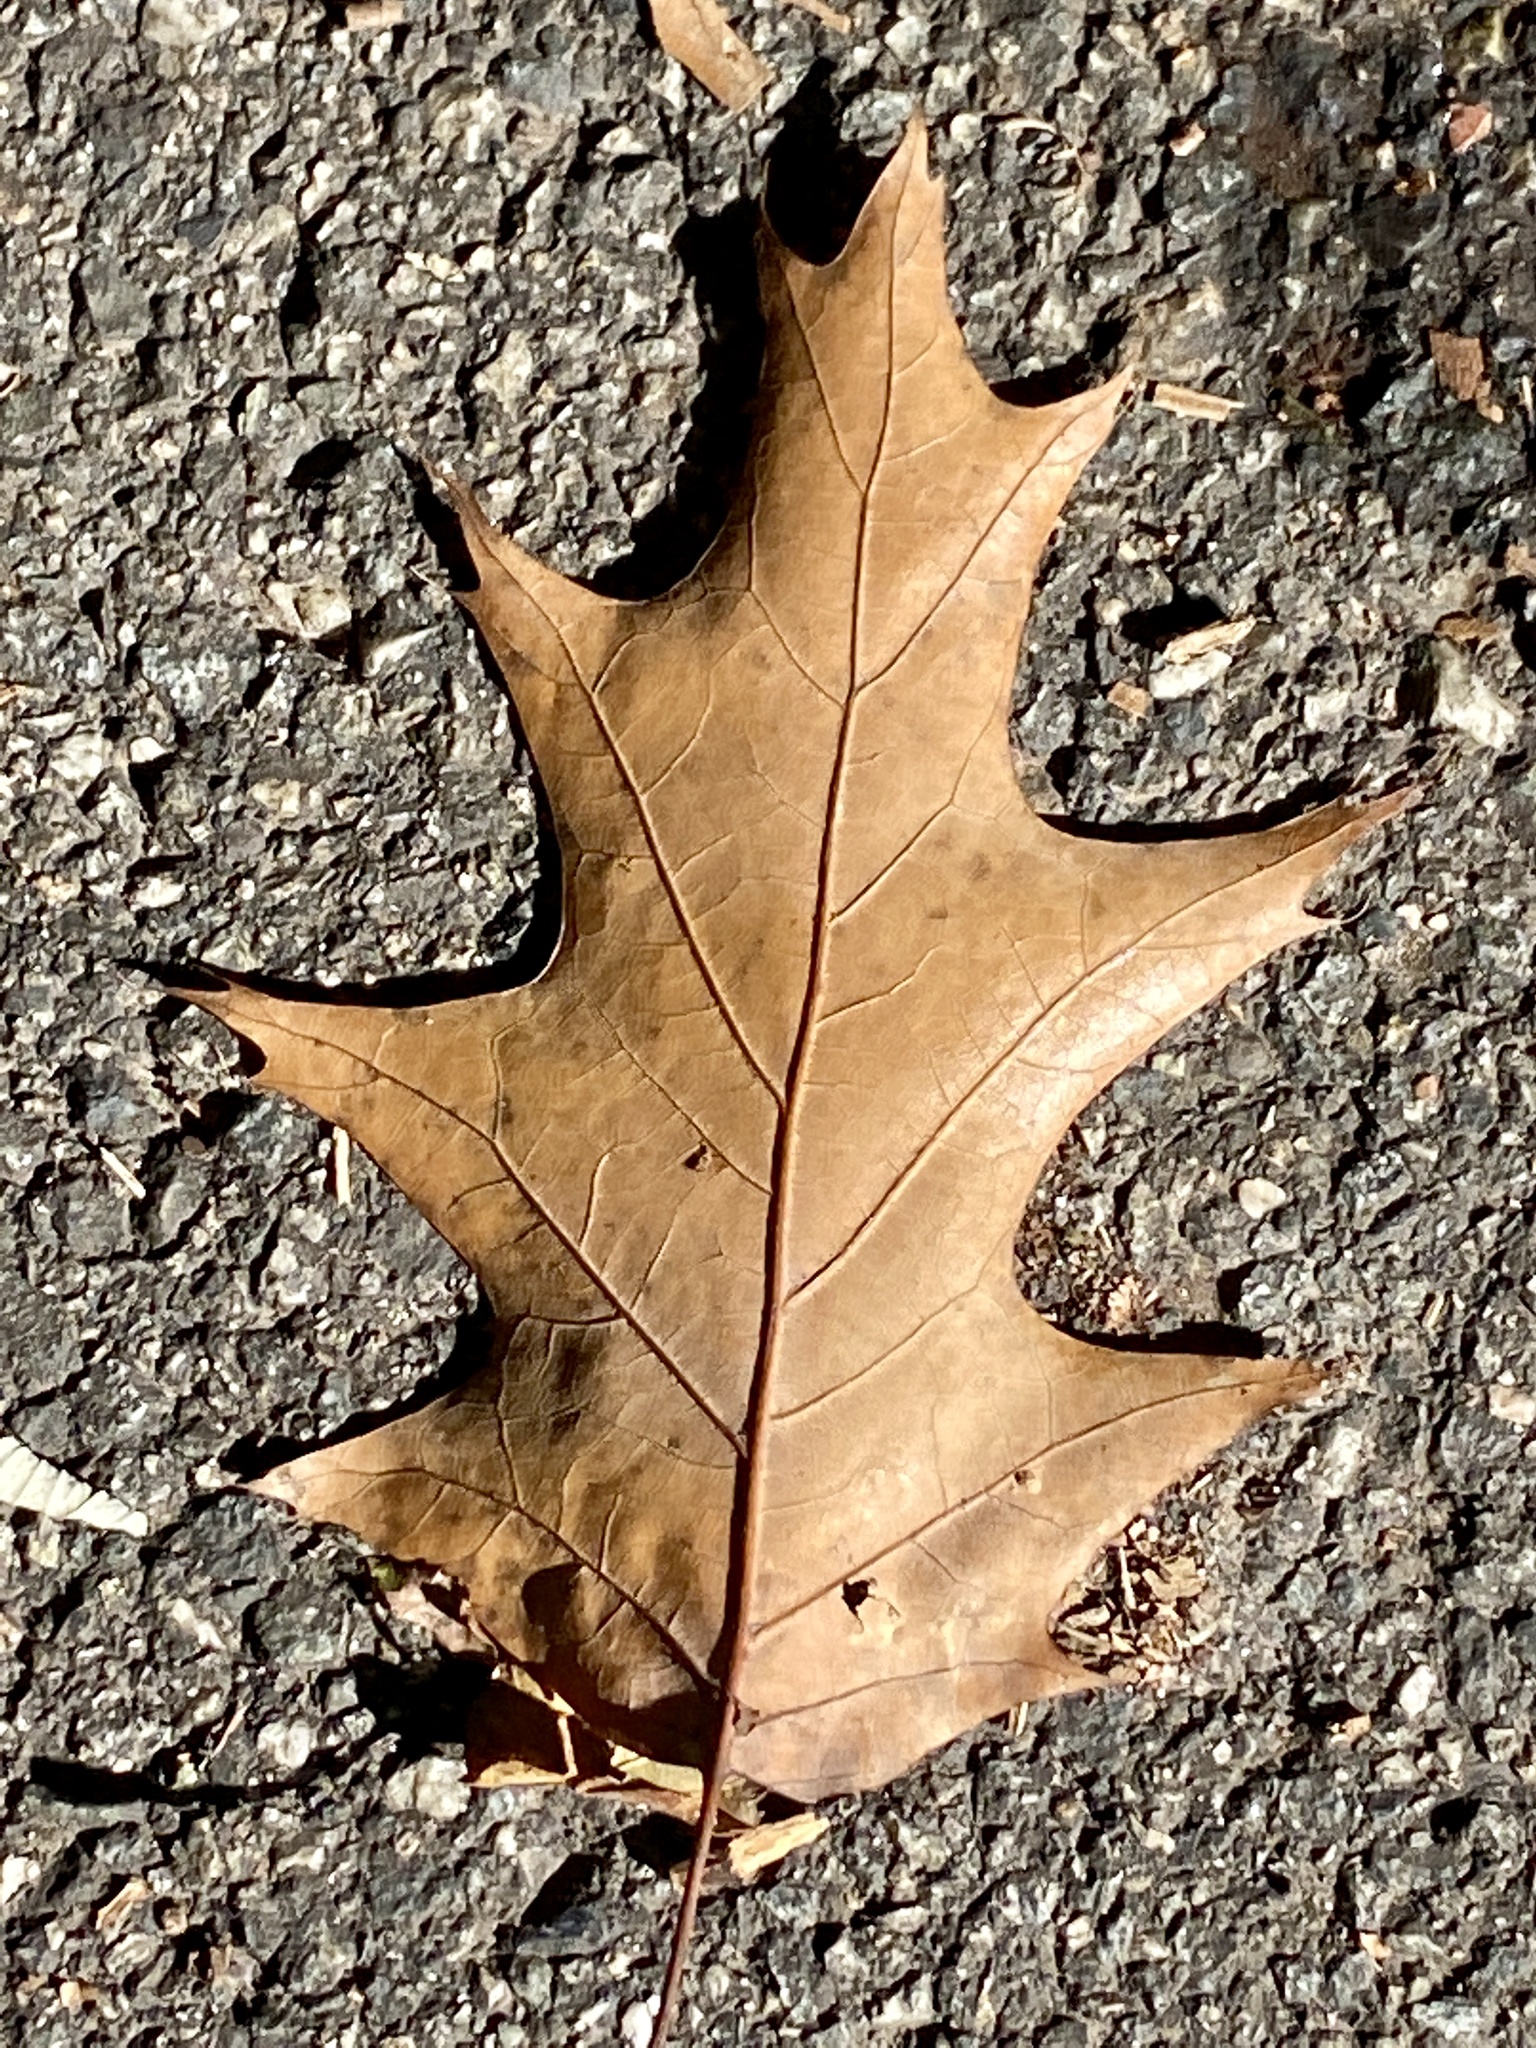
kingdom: Plantae
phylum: Tracheophyta
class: Magnoliopsida
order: Fagales
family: Fagaceae
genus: Quercus
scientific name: Quercus rubra
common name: Red oak
